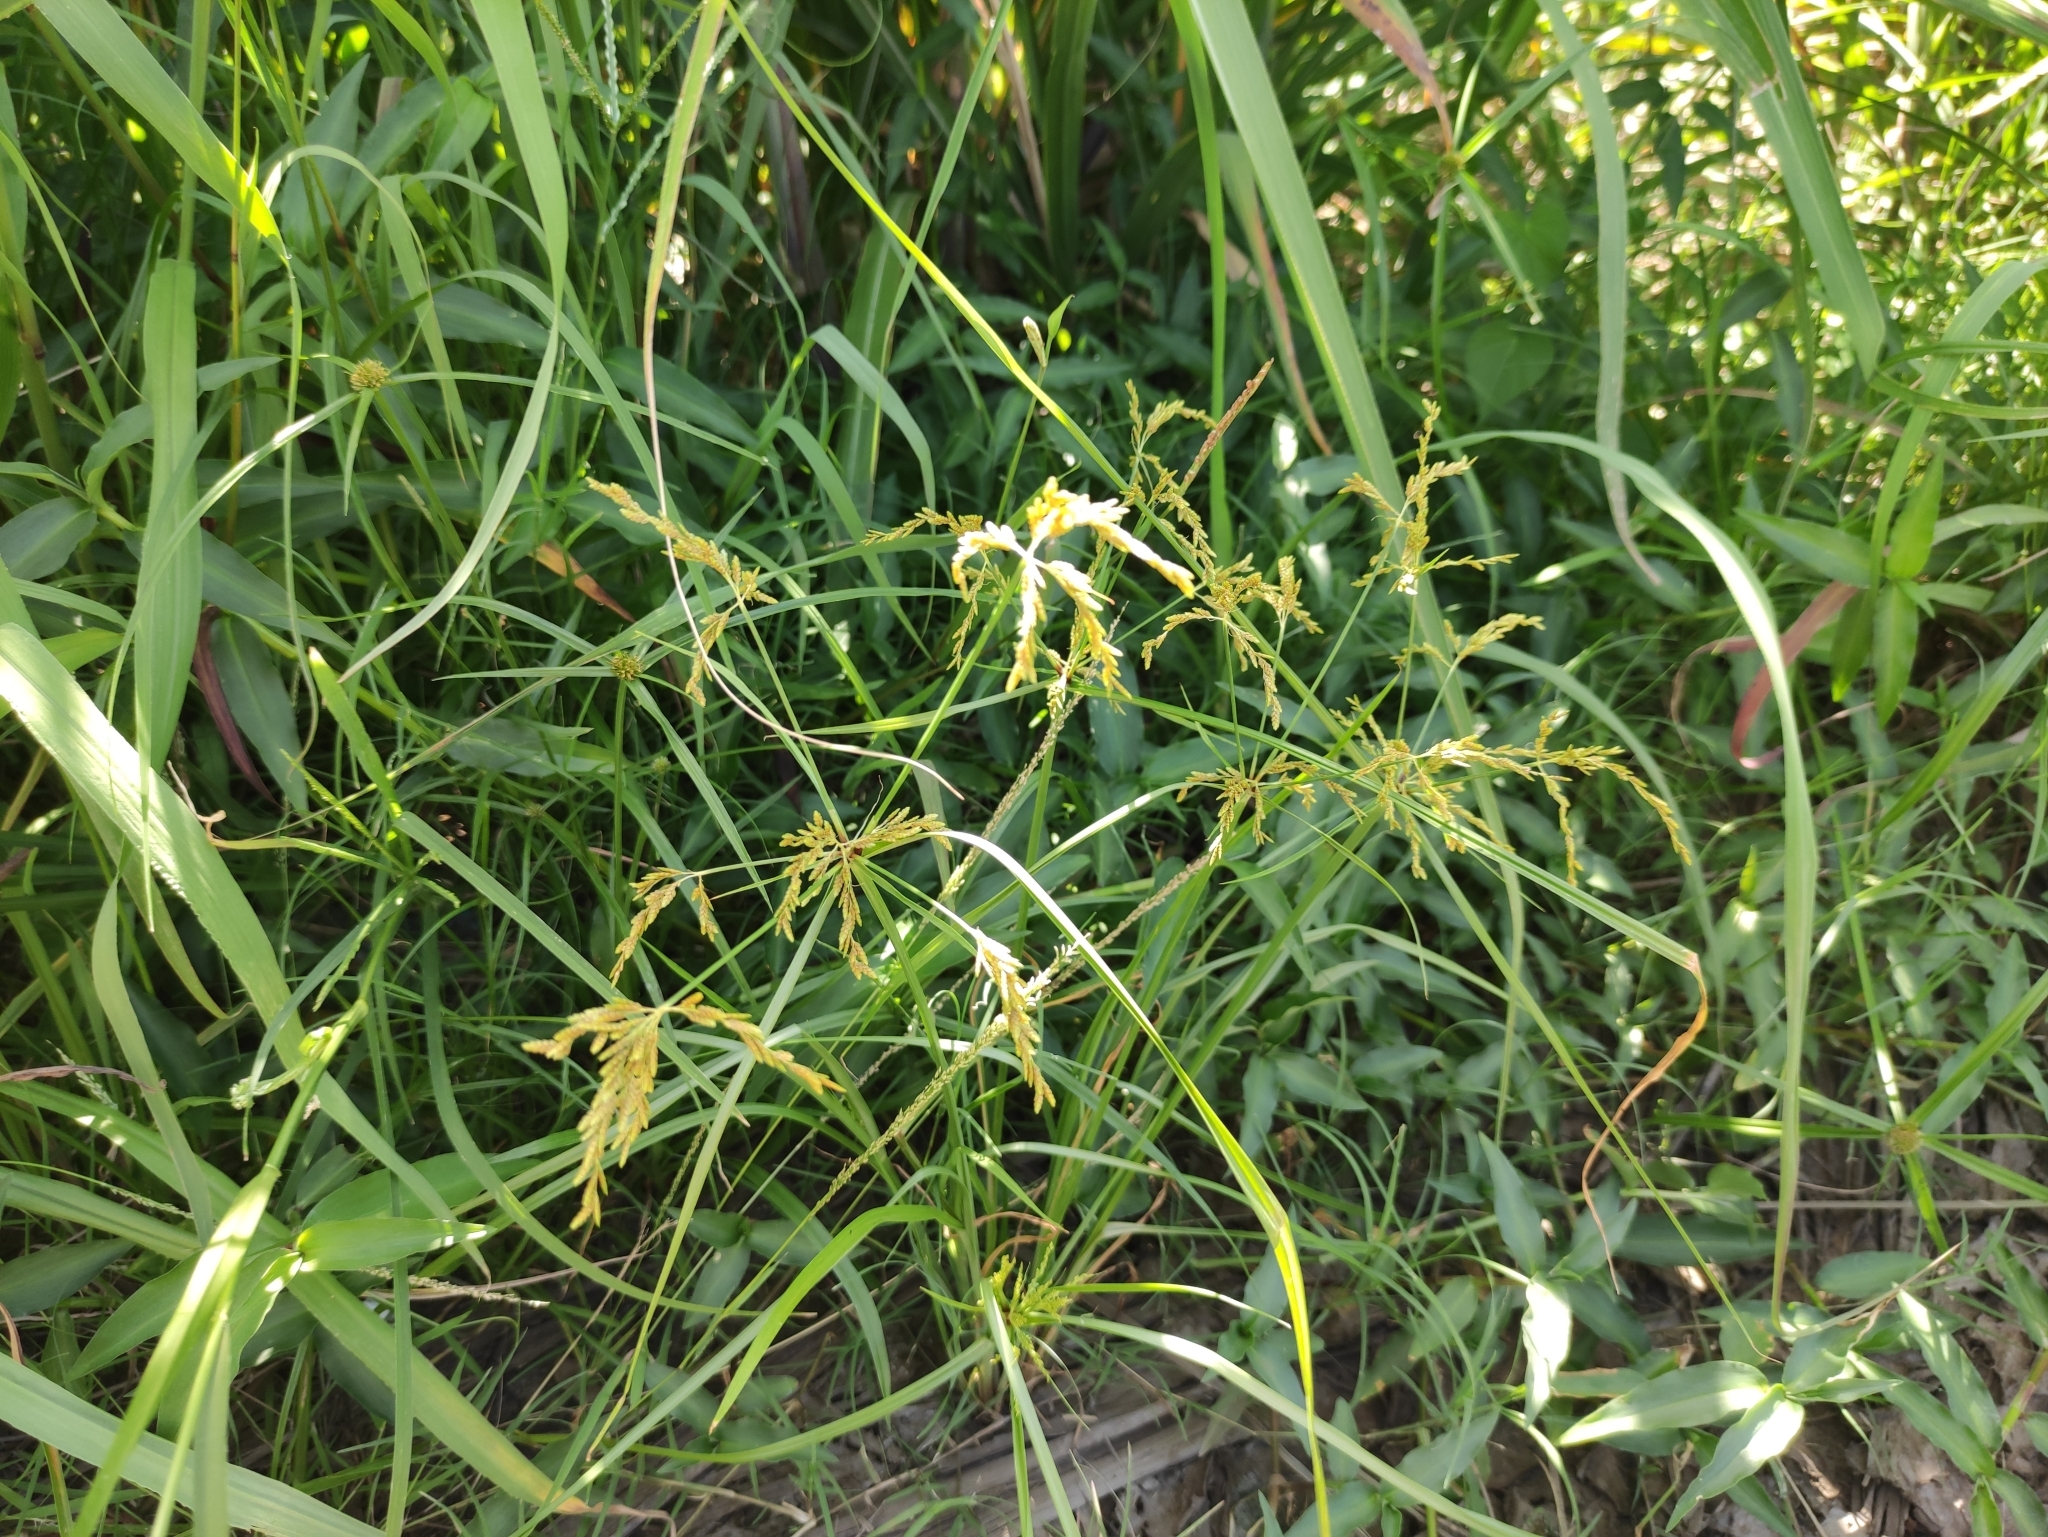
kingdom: Plantae
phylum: Tracheophyta
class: Liliopsida
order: Poales
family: Cyperaceae
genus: Cyperus
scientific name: Cyperus iria
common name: Ricefield flatsedge
